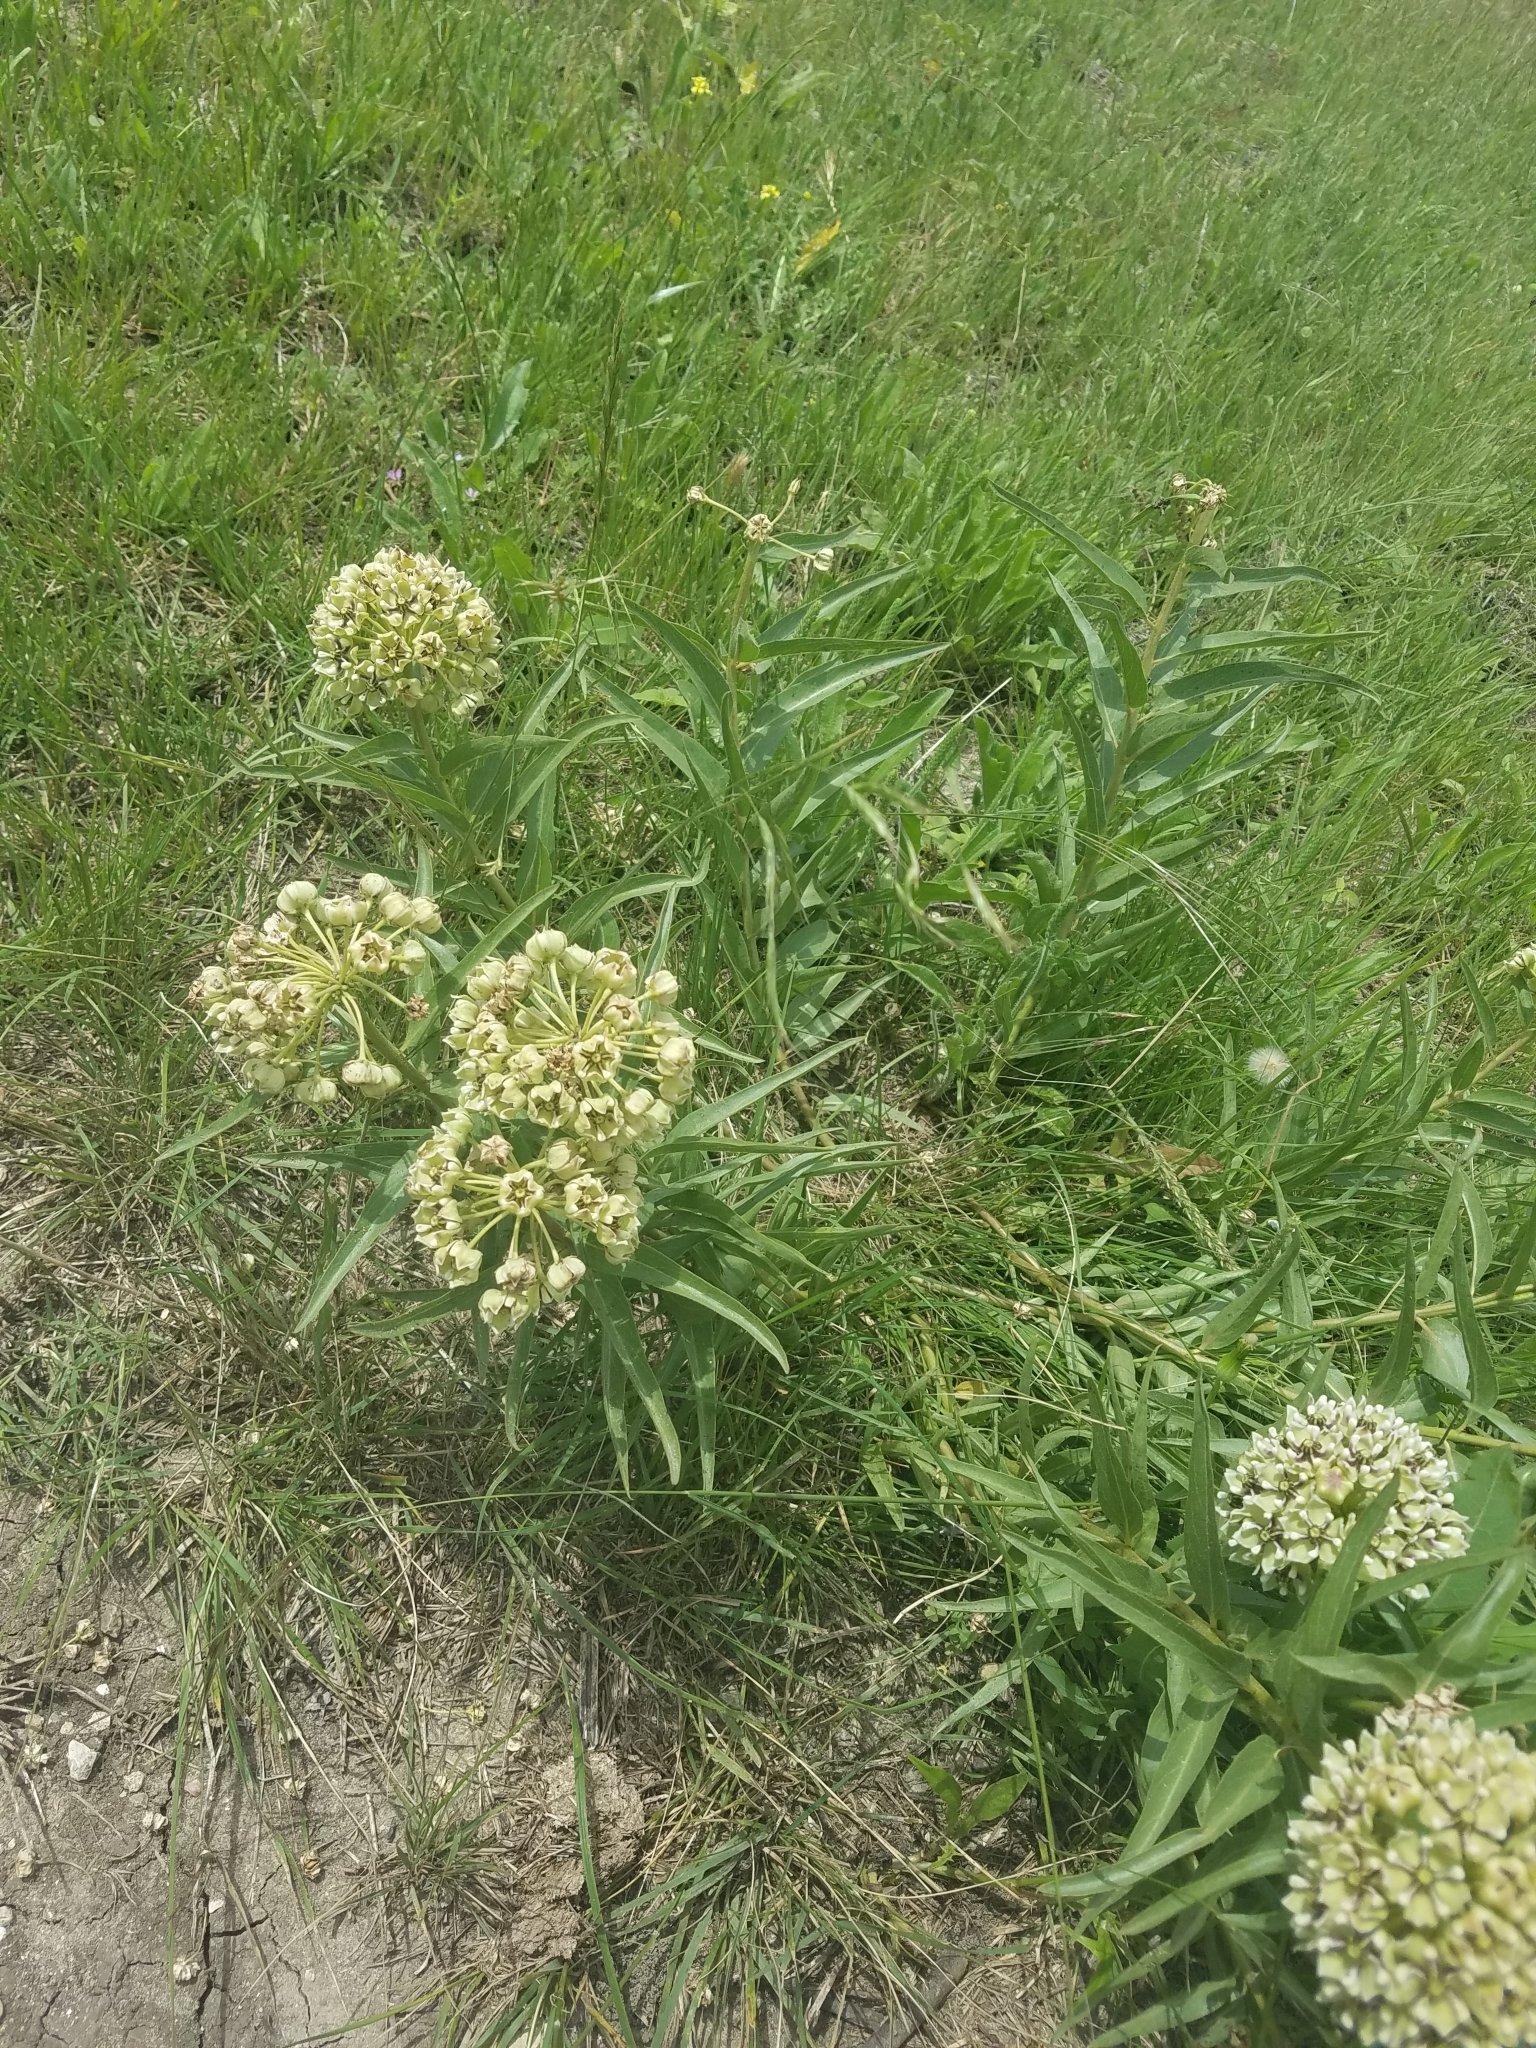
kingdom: Plantae
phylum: Tracheophyta
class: Magnoliopsida
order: Gentianales
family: Apocynaceae
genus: Asclepias
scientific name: Asclepias asperula
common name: Antelope horns
